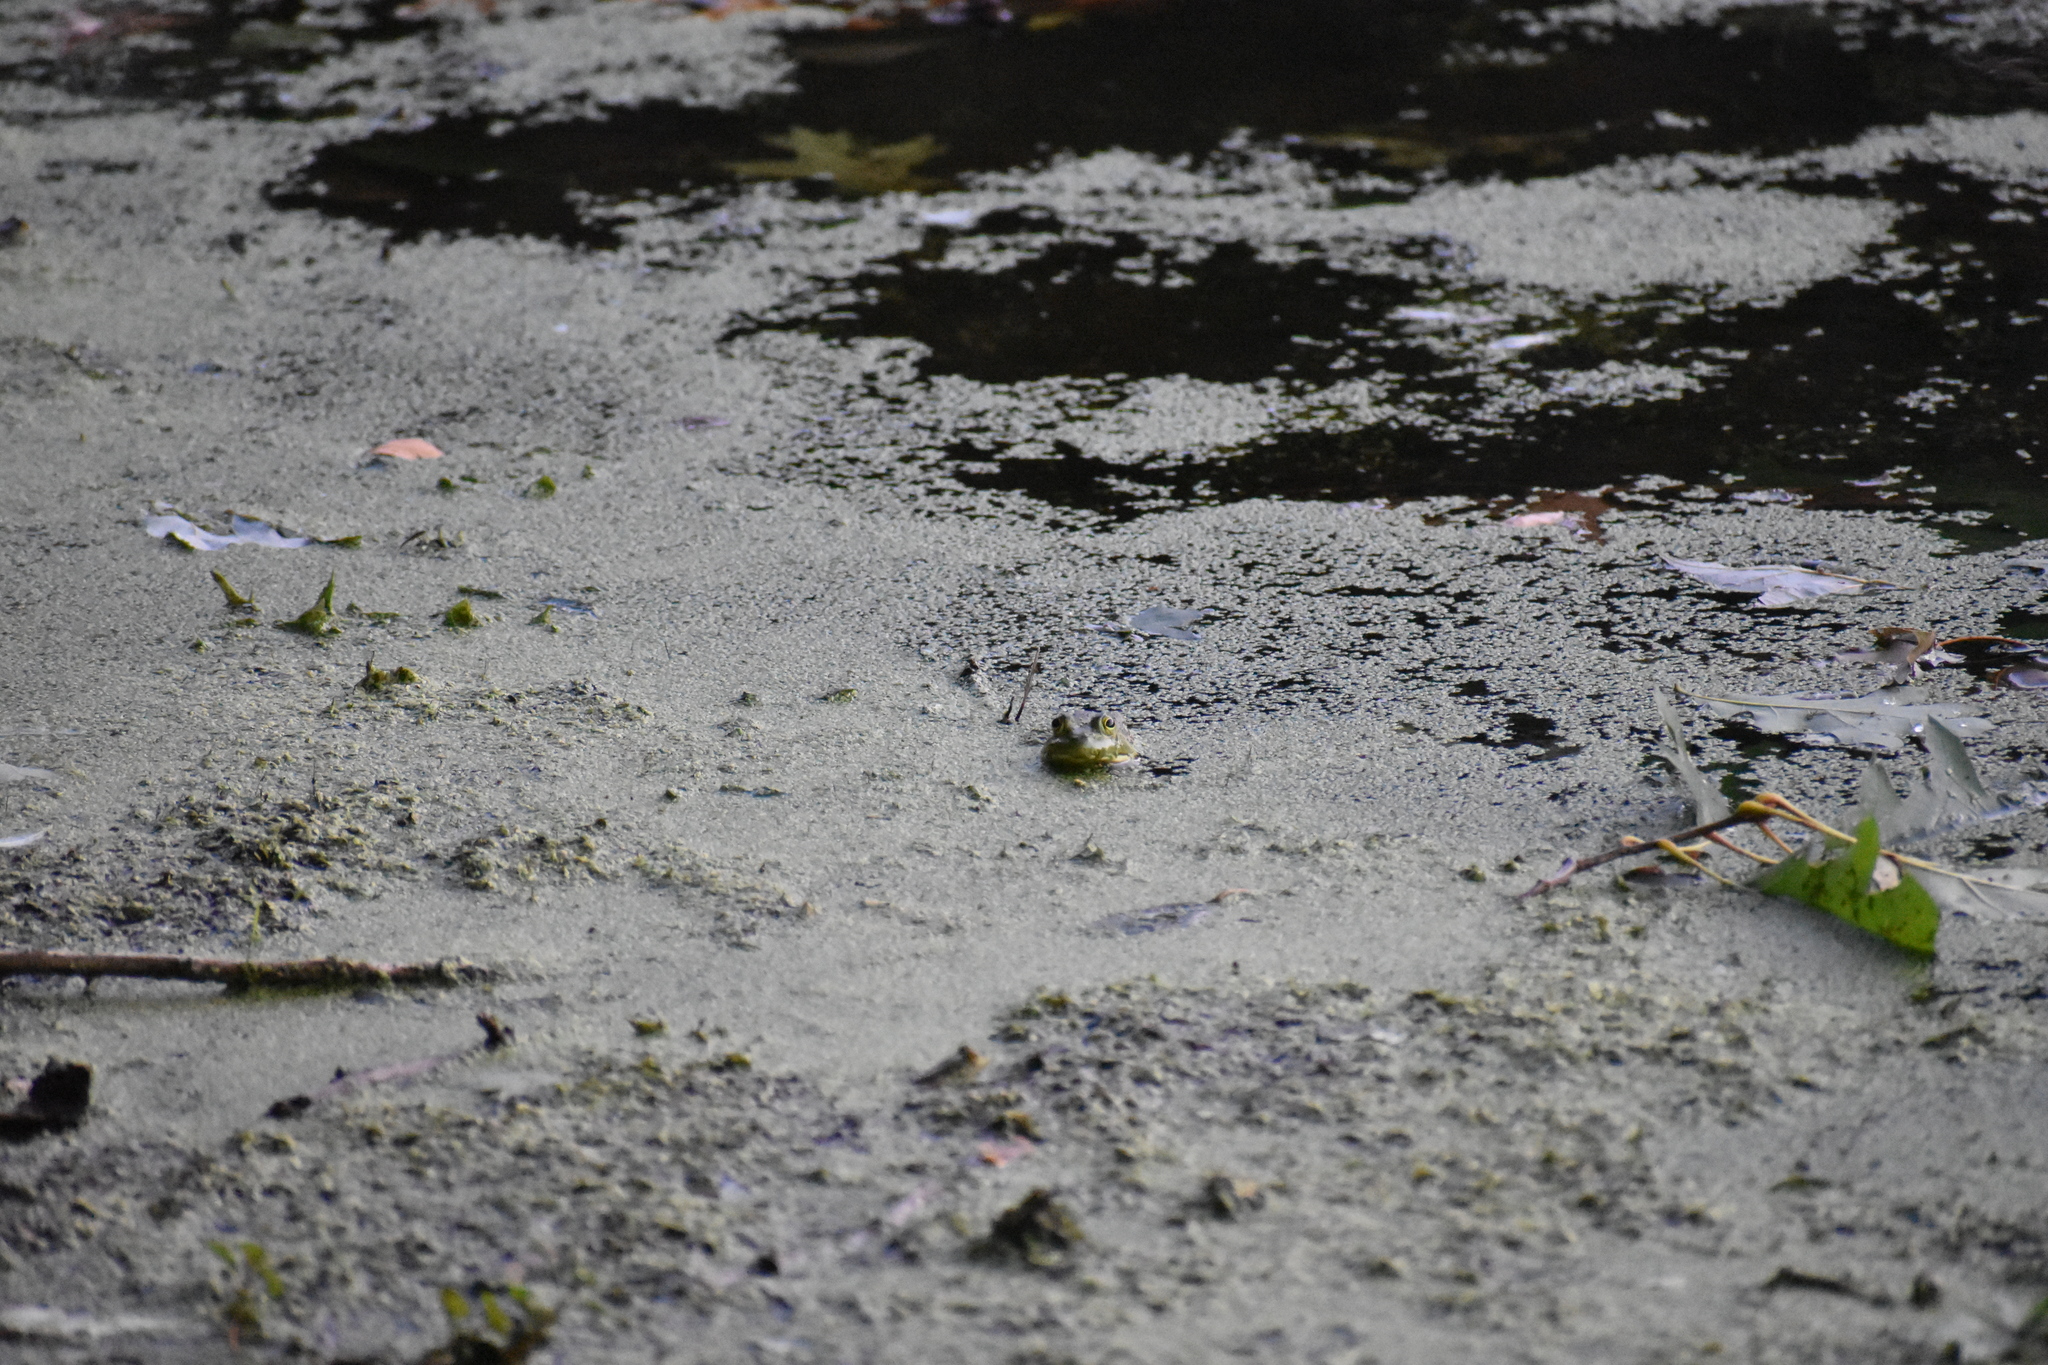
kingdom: Animalia
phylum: Chordata
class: Amphibia
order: Anura
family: Ranidae
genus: Lithobates
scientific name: Lithobates catesbeianus
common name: American bullfrog
